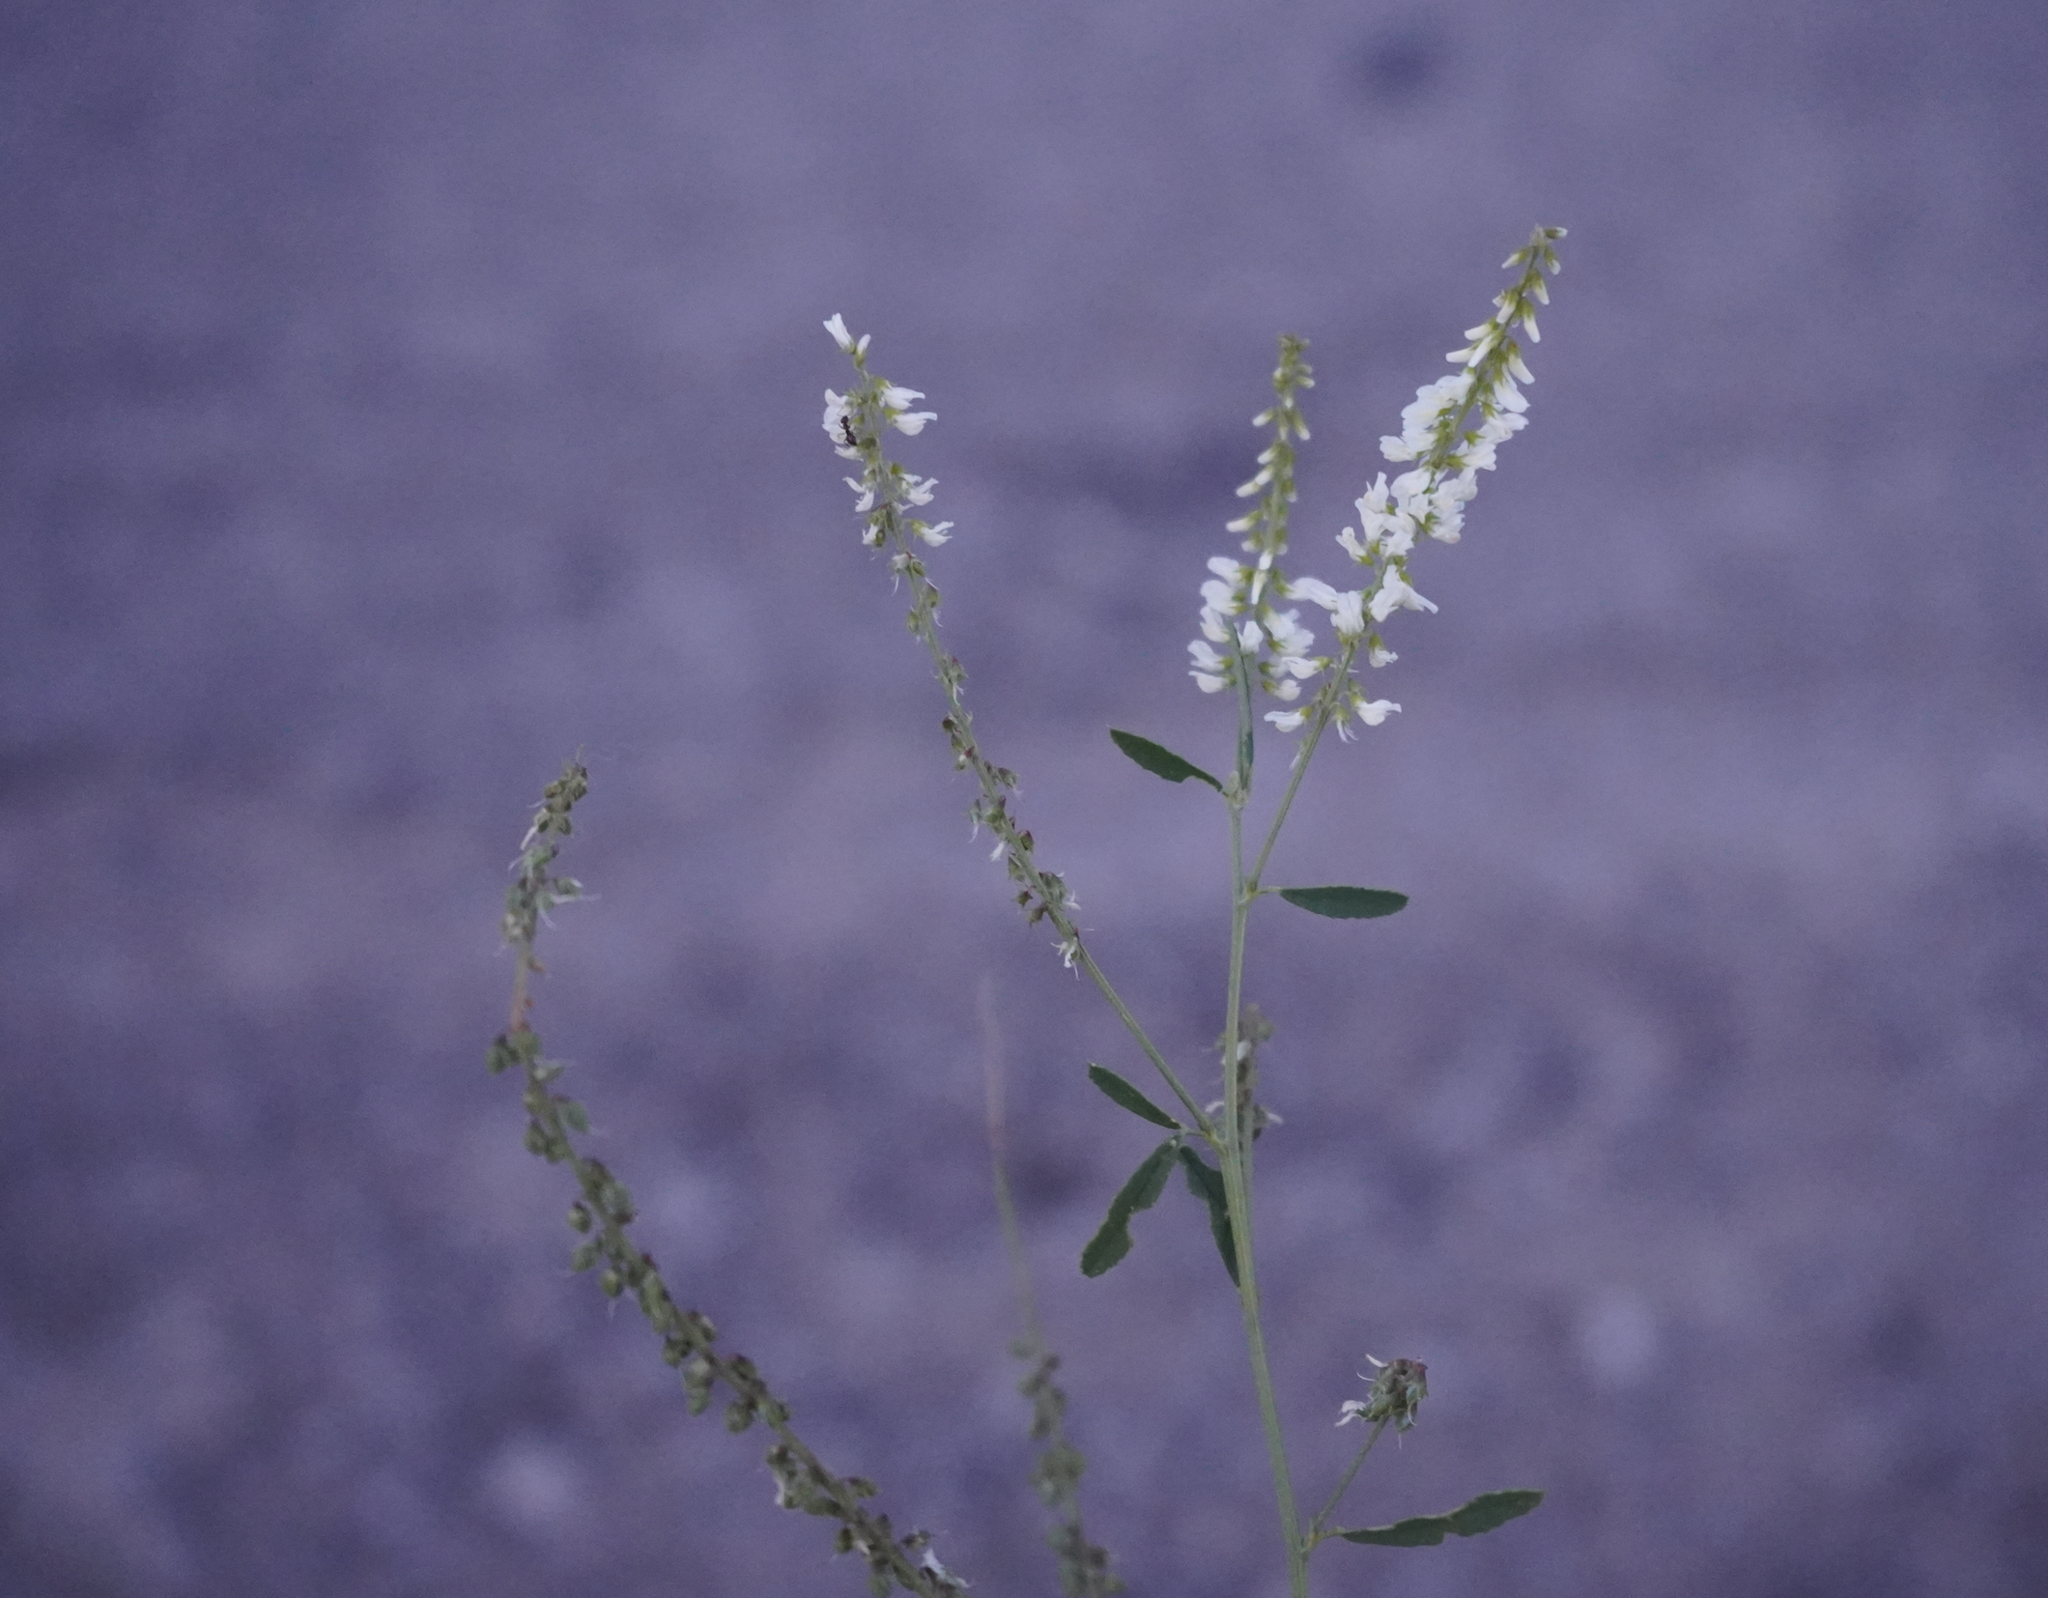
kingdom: Plantae
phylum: Tracheophyta
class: Magnoliopsida
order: Fabales
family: Fabaceae
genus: Melilotus
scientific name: Melilotus albus
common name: White melilot
